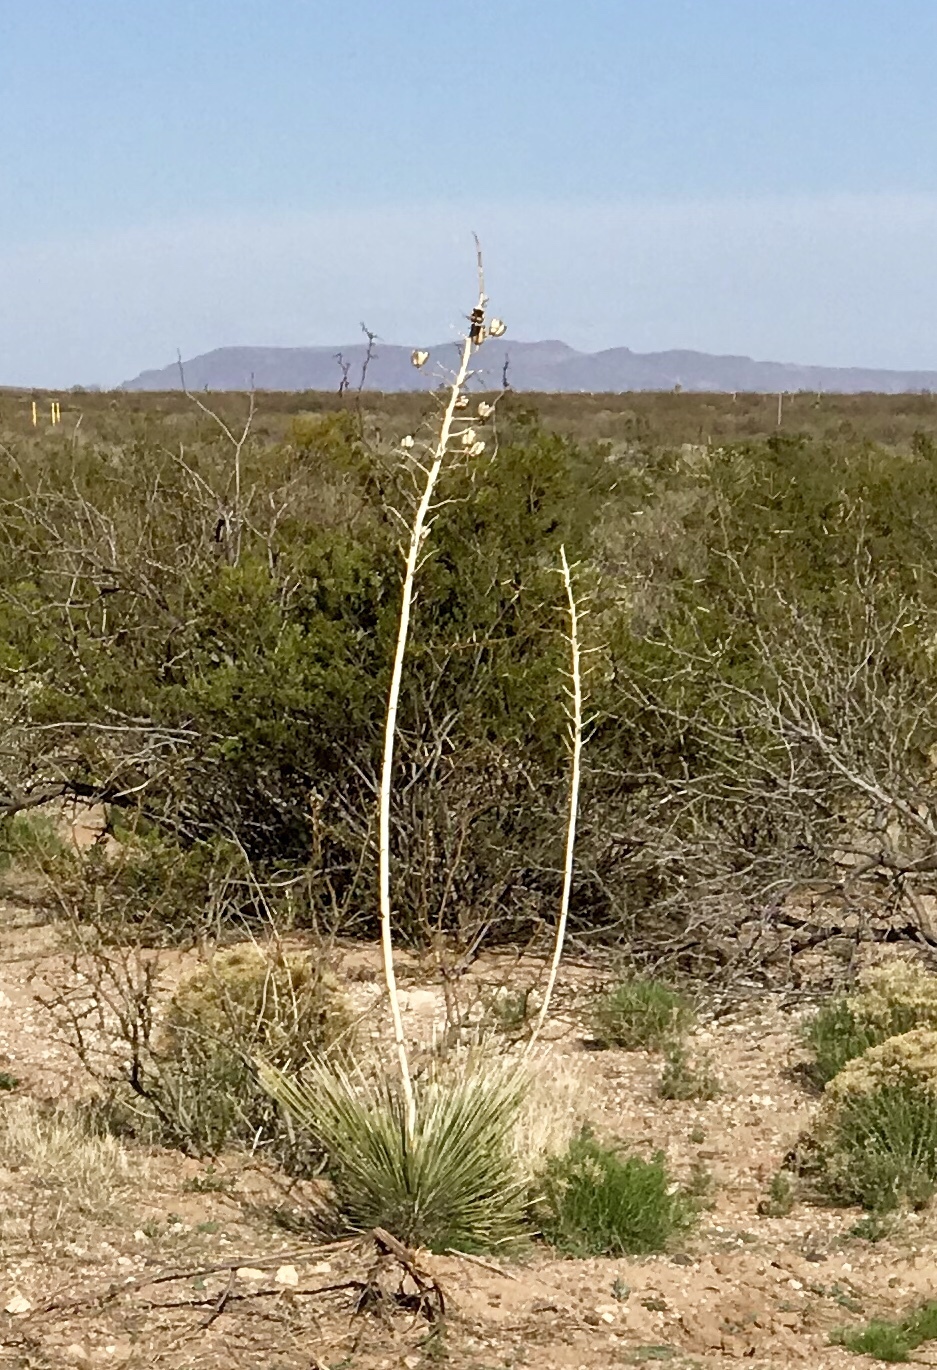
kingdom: Plantae
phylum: Tracheophyta
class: Liliopsida
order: Asparagales
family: Asparagaceae
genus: Yucca
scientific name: Yucca elata
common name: Palmella
